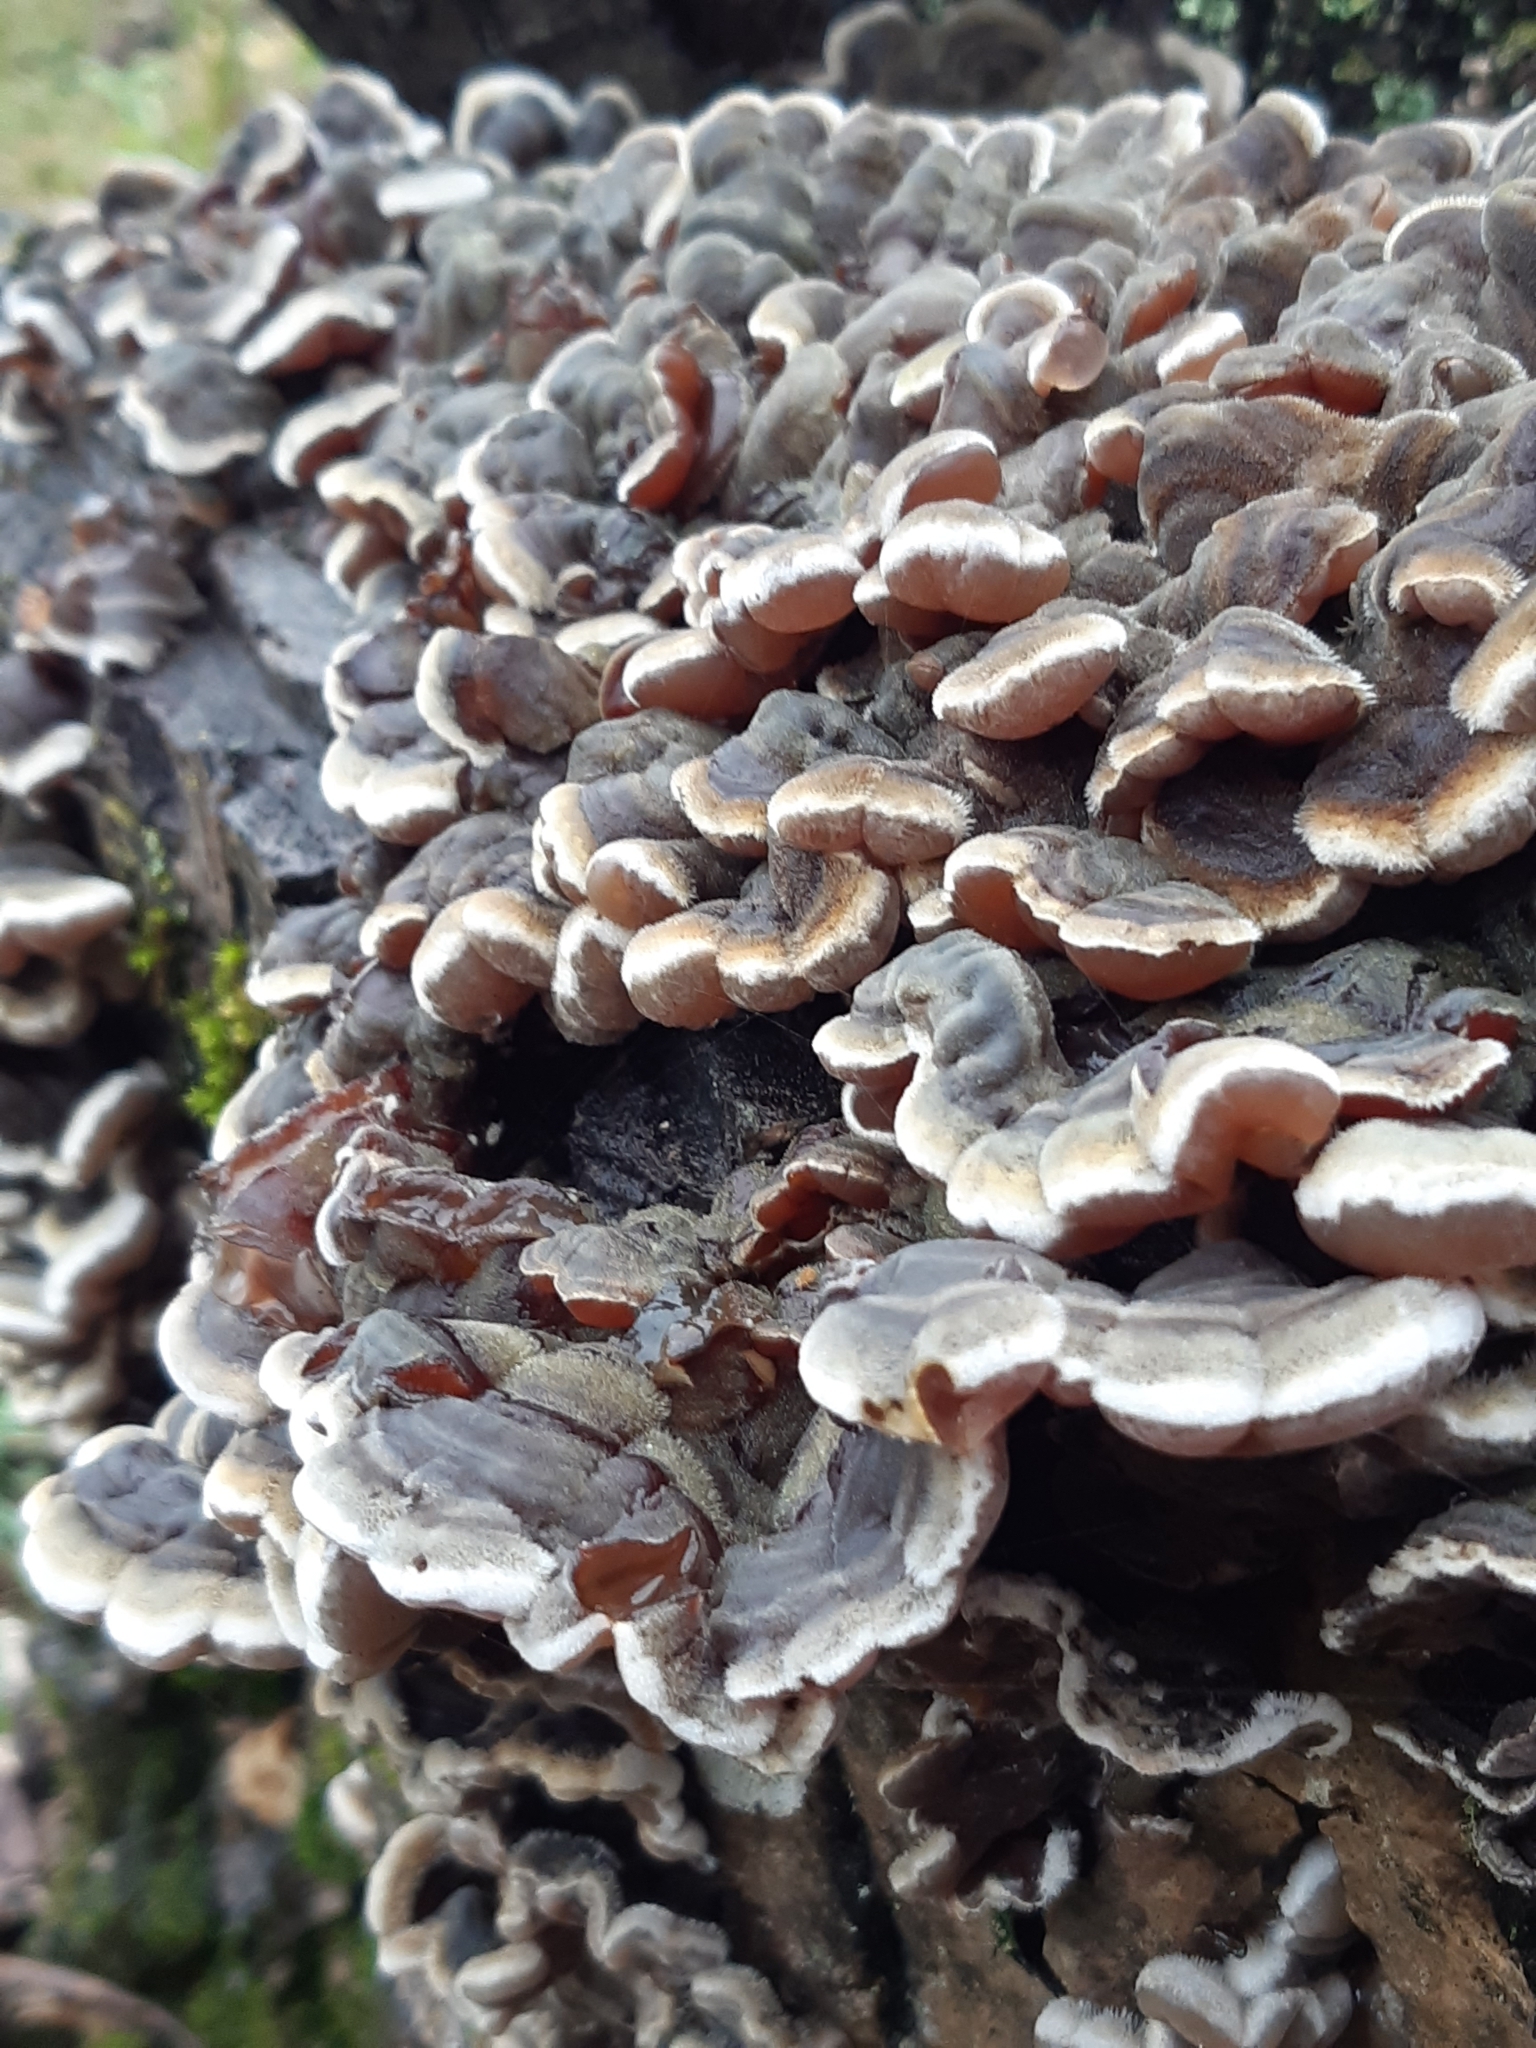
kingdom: Fungi
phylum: Basidiomycota
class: Agaricomycetes
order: Auriculariales
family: Auriculariaceae
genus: Auricularia
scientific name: Auricularia mesenterica
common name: Tripe fungus
